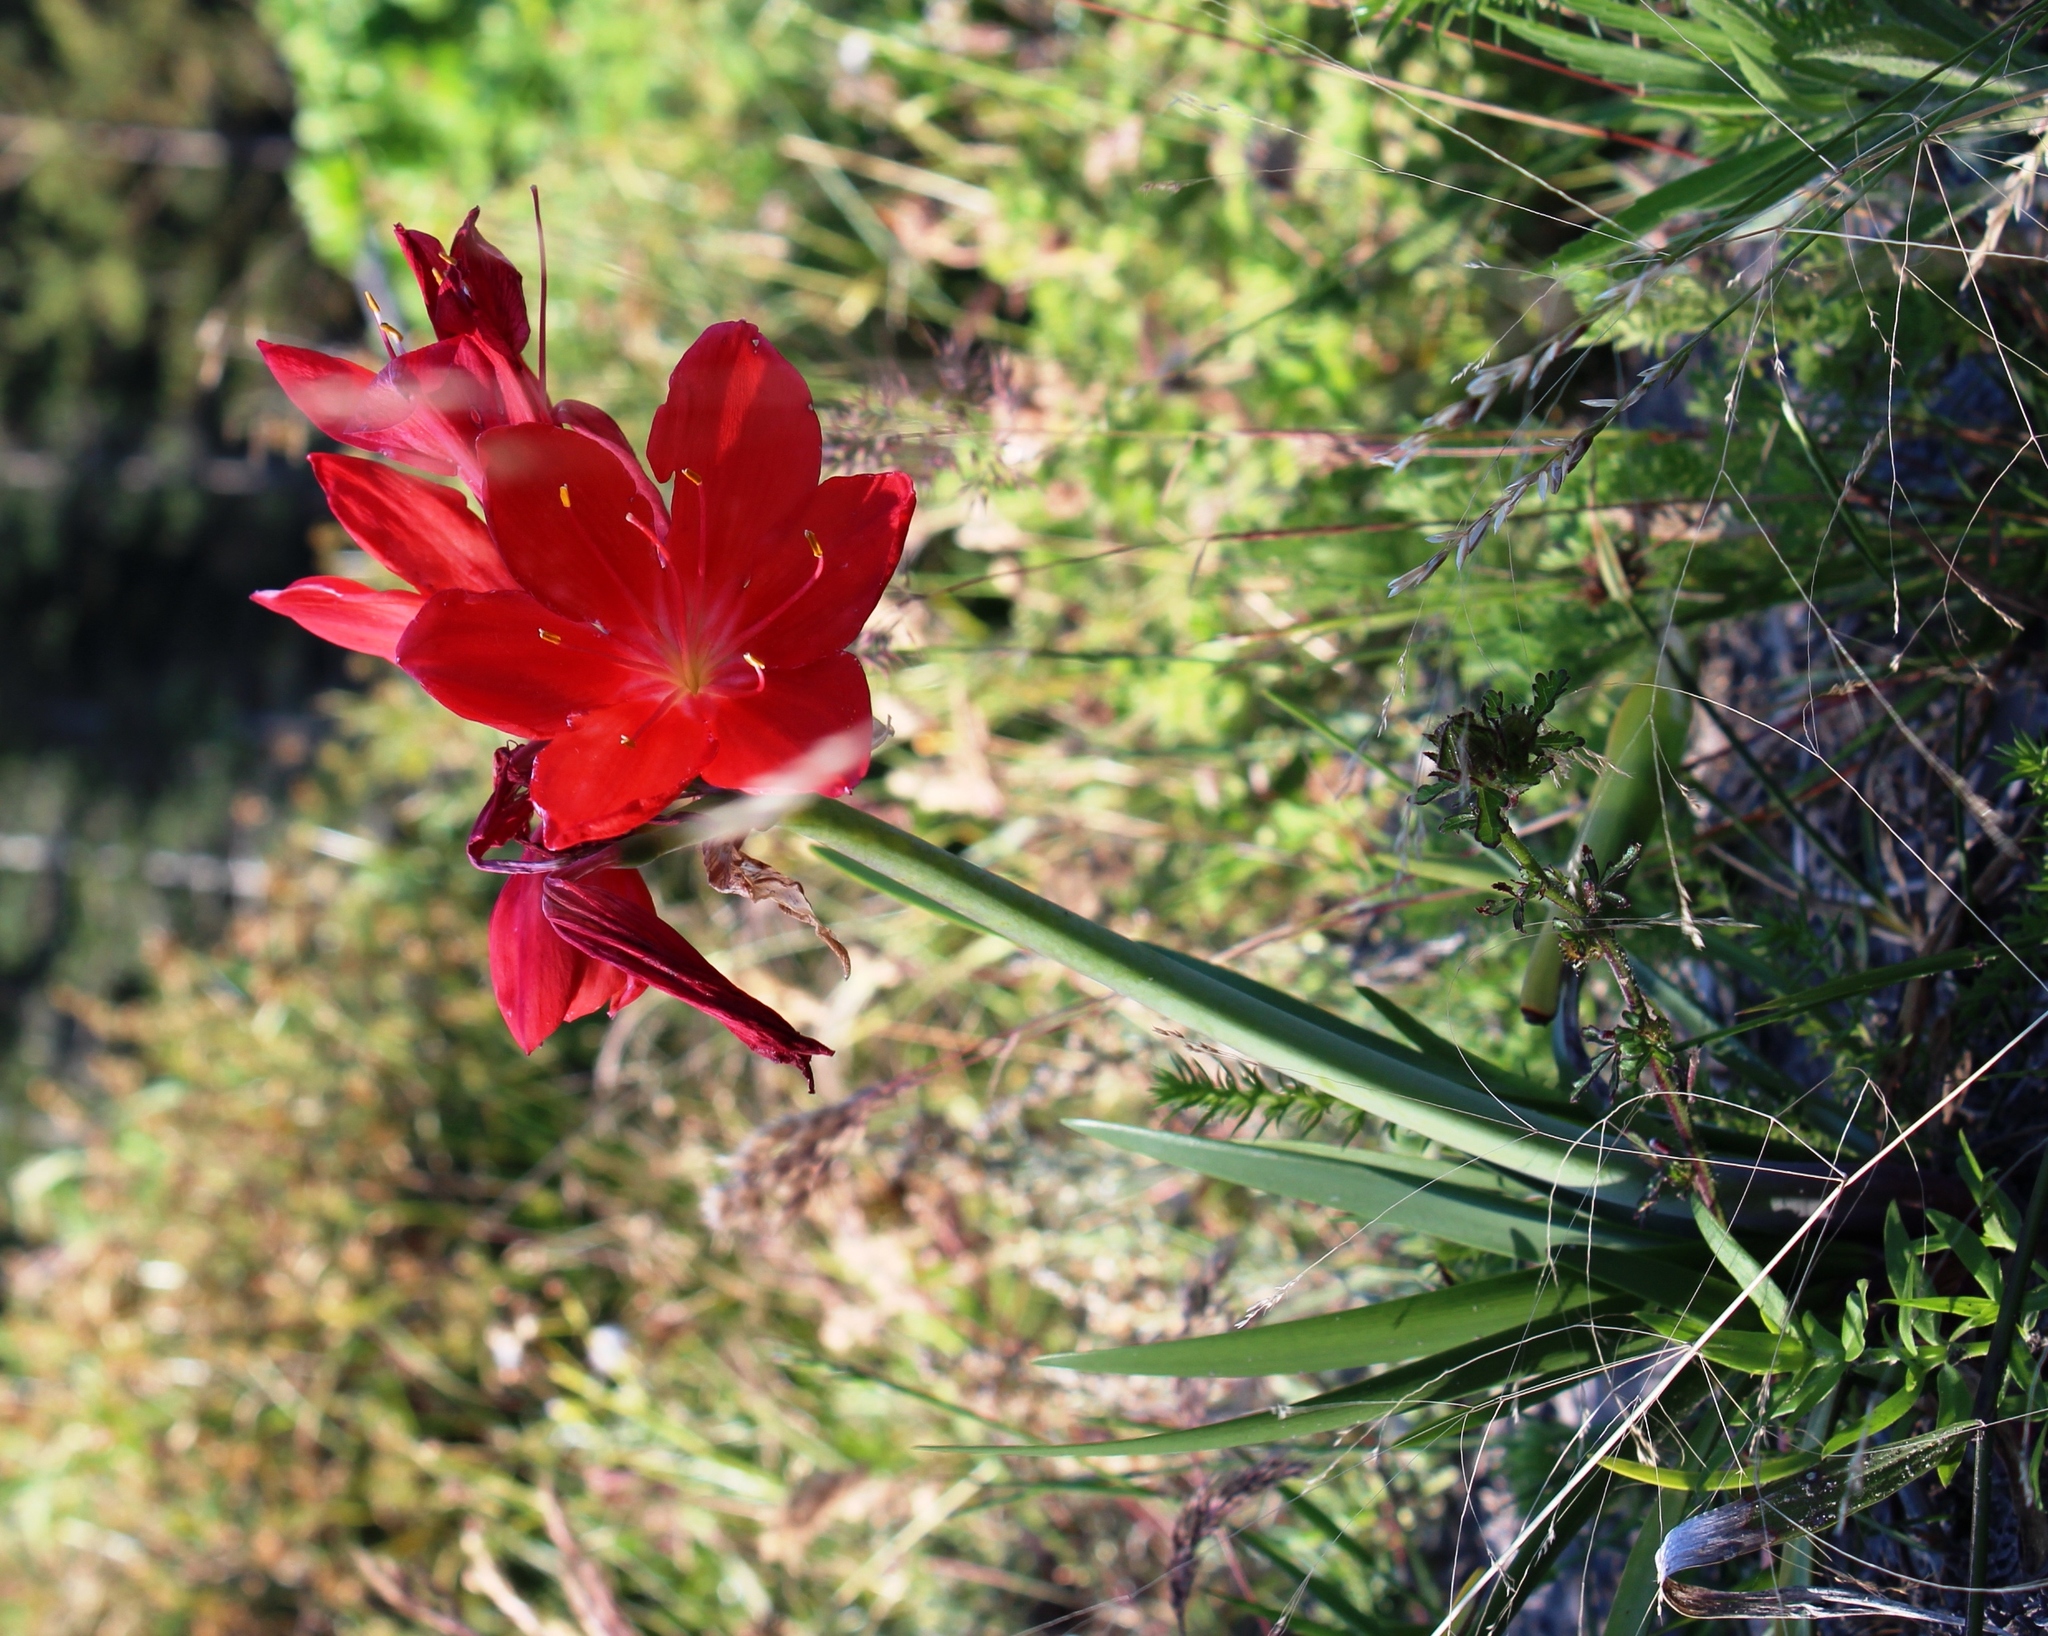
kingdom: Plantae
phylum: Tracheophyta
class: Liliopsida
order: Asparagales
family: Amaryllidaceae
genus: Cyrtanthus
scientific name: Cyrtanthus elatus
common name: Scarborough-lily
